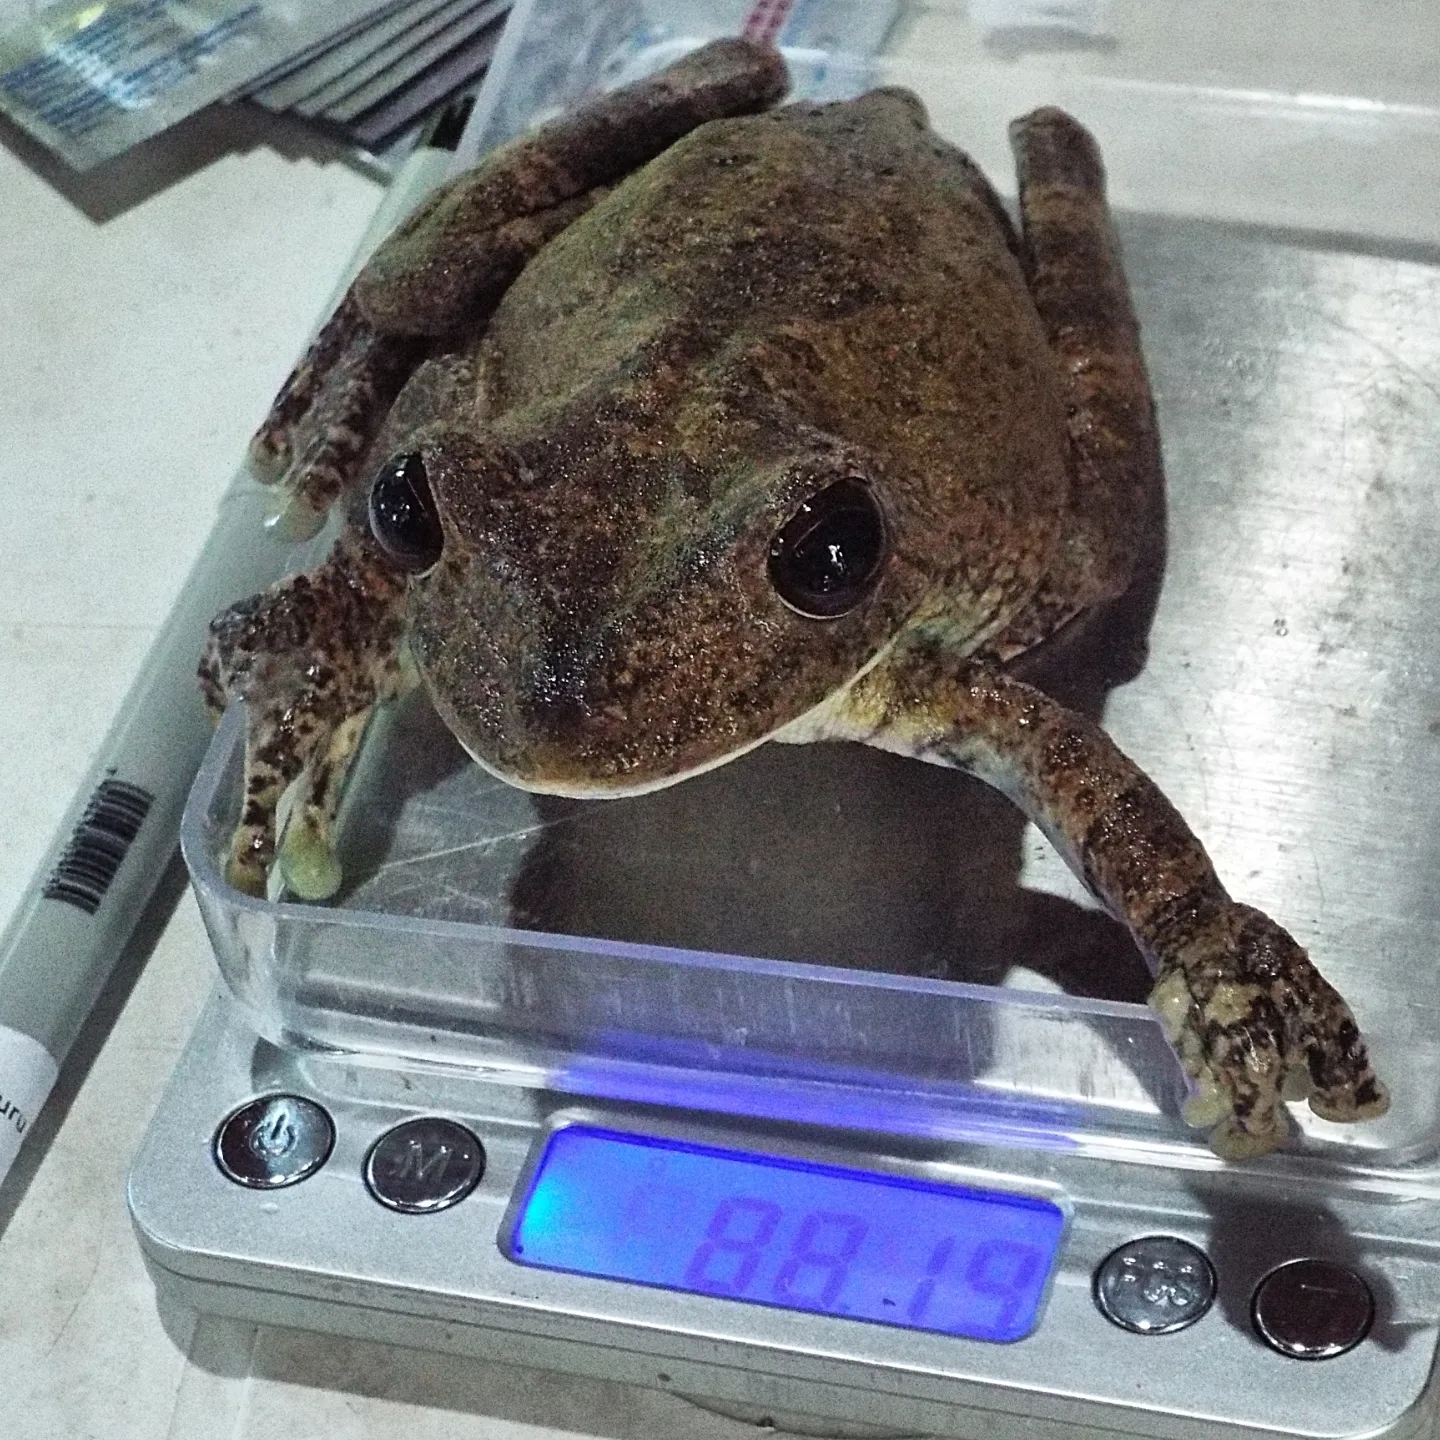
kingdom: Animalia
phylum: Chordata
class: Amphibia
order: Anura
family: Hylidae
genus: Boana
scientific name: Boana boans
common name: Giant gladiator treefrog
